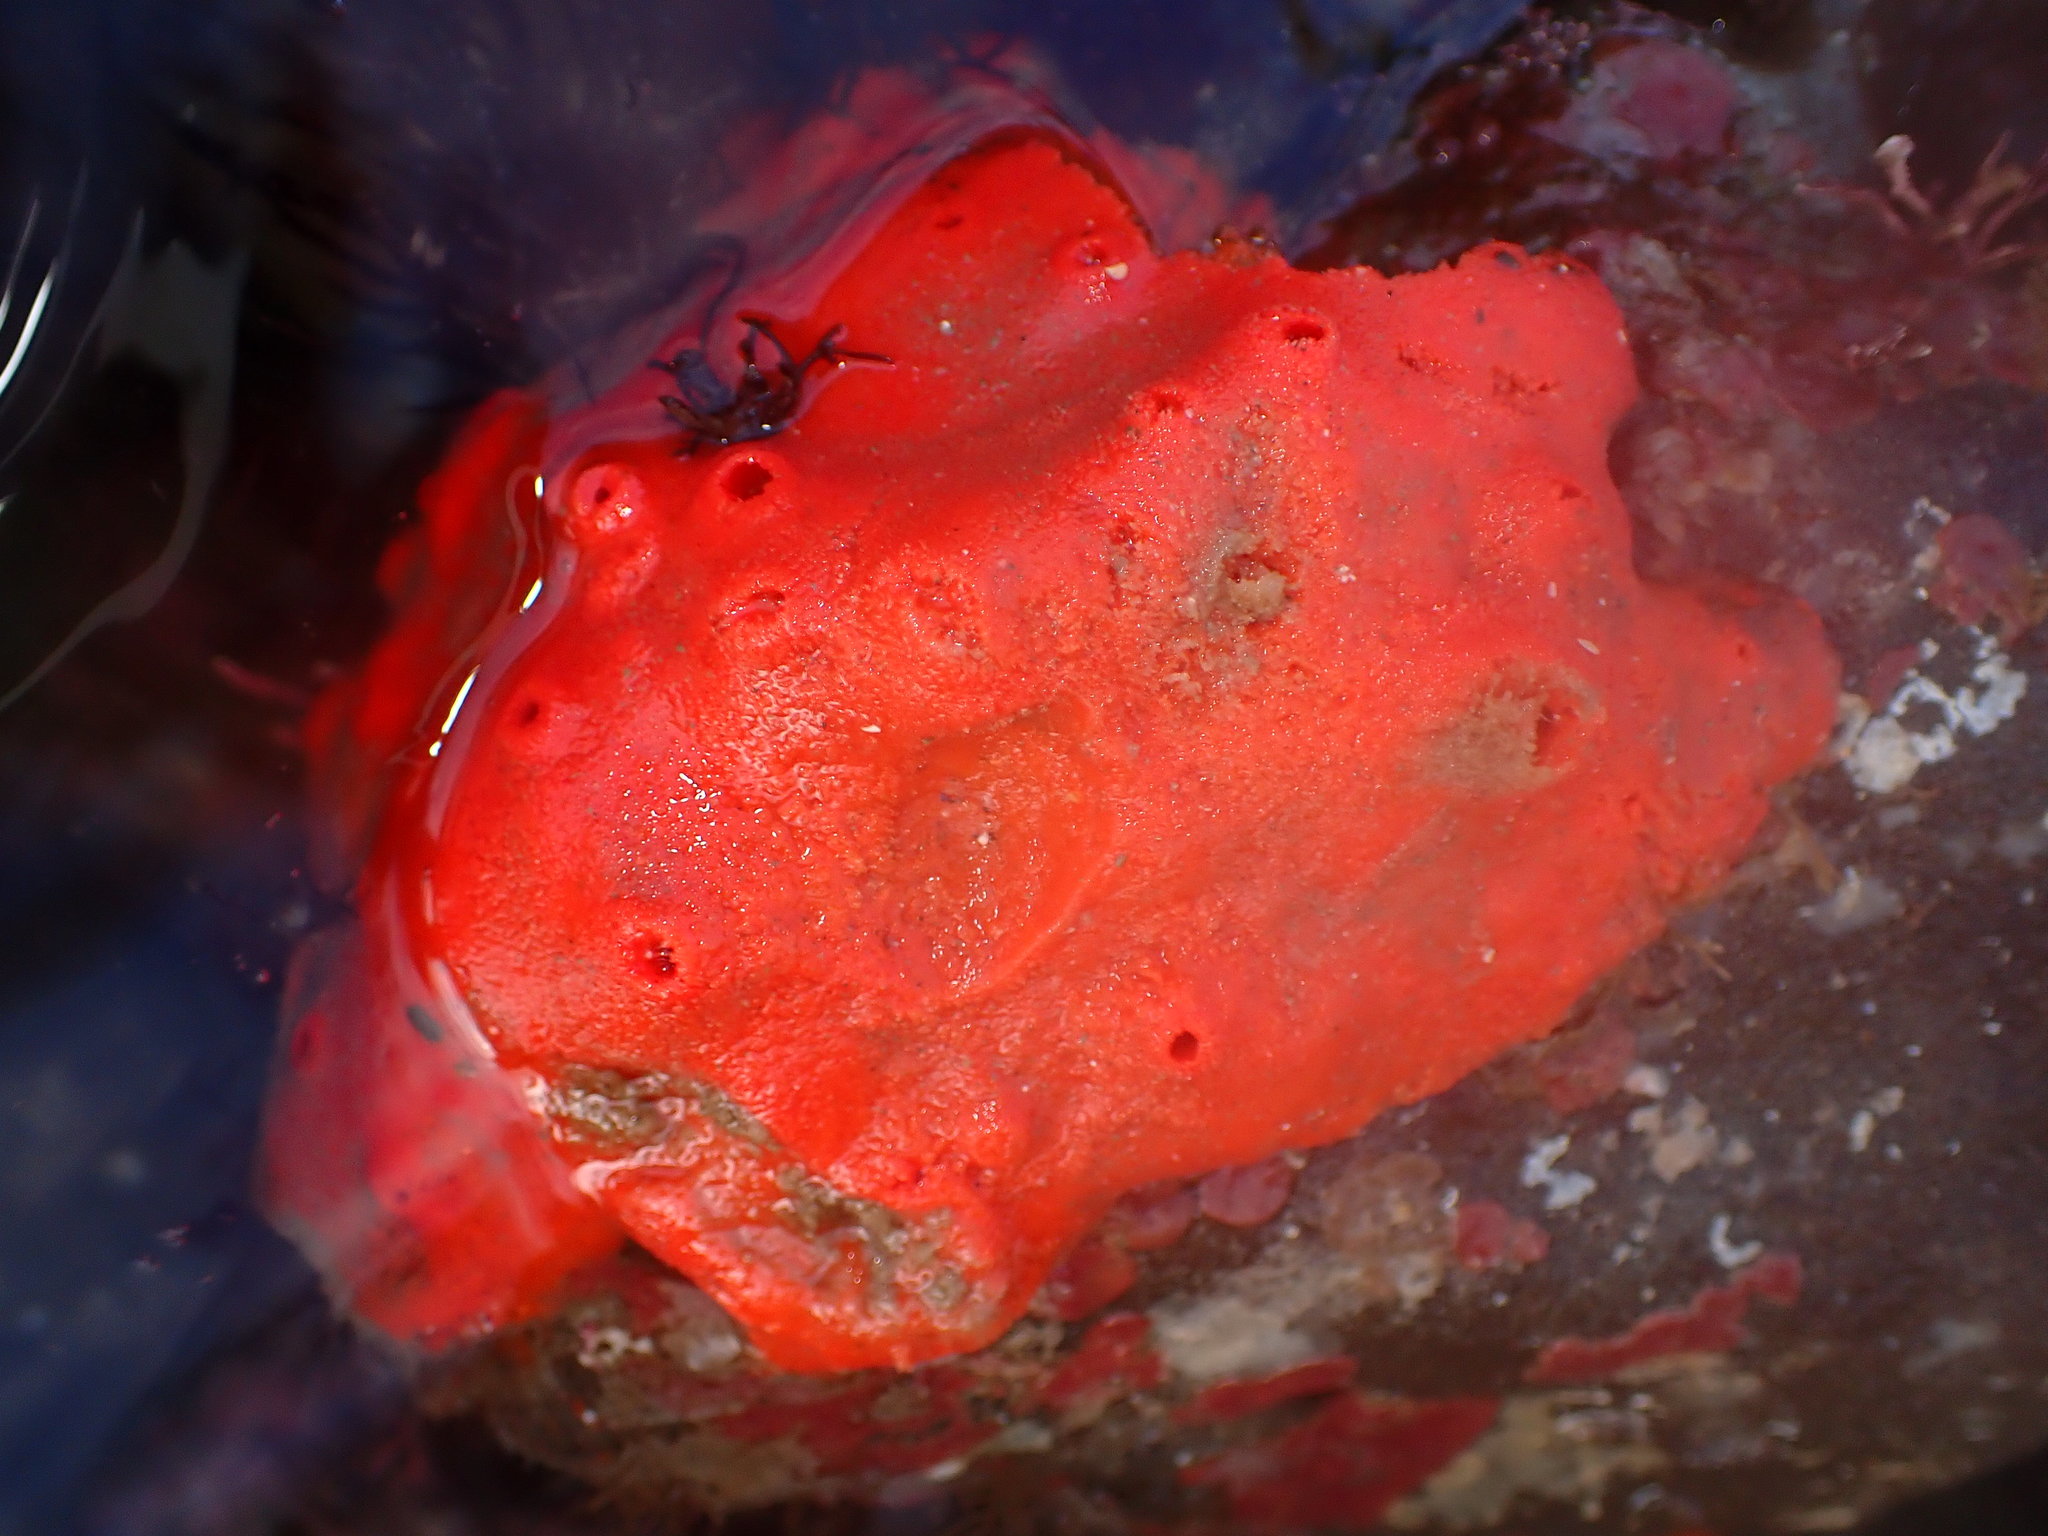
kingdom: Animalia
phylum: Porifera
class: Demospongiae
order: Poecilosclerida
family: Acarnidae
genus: Acarnus
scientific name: Acarnus erithacus
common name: Red volcano horny sponge
